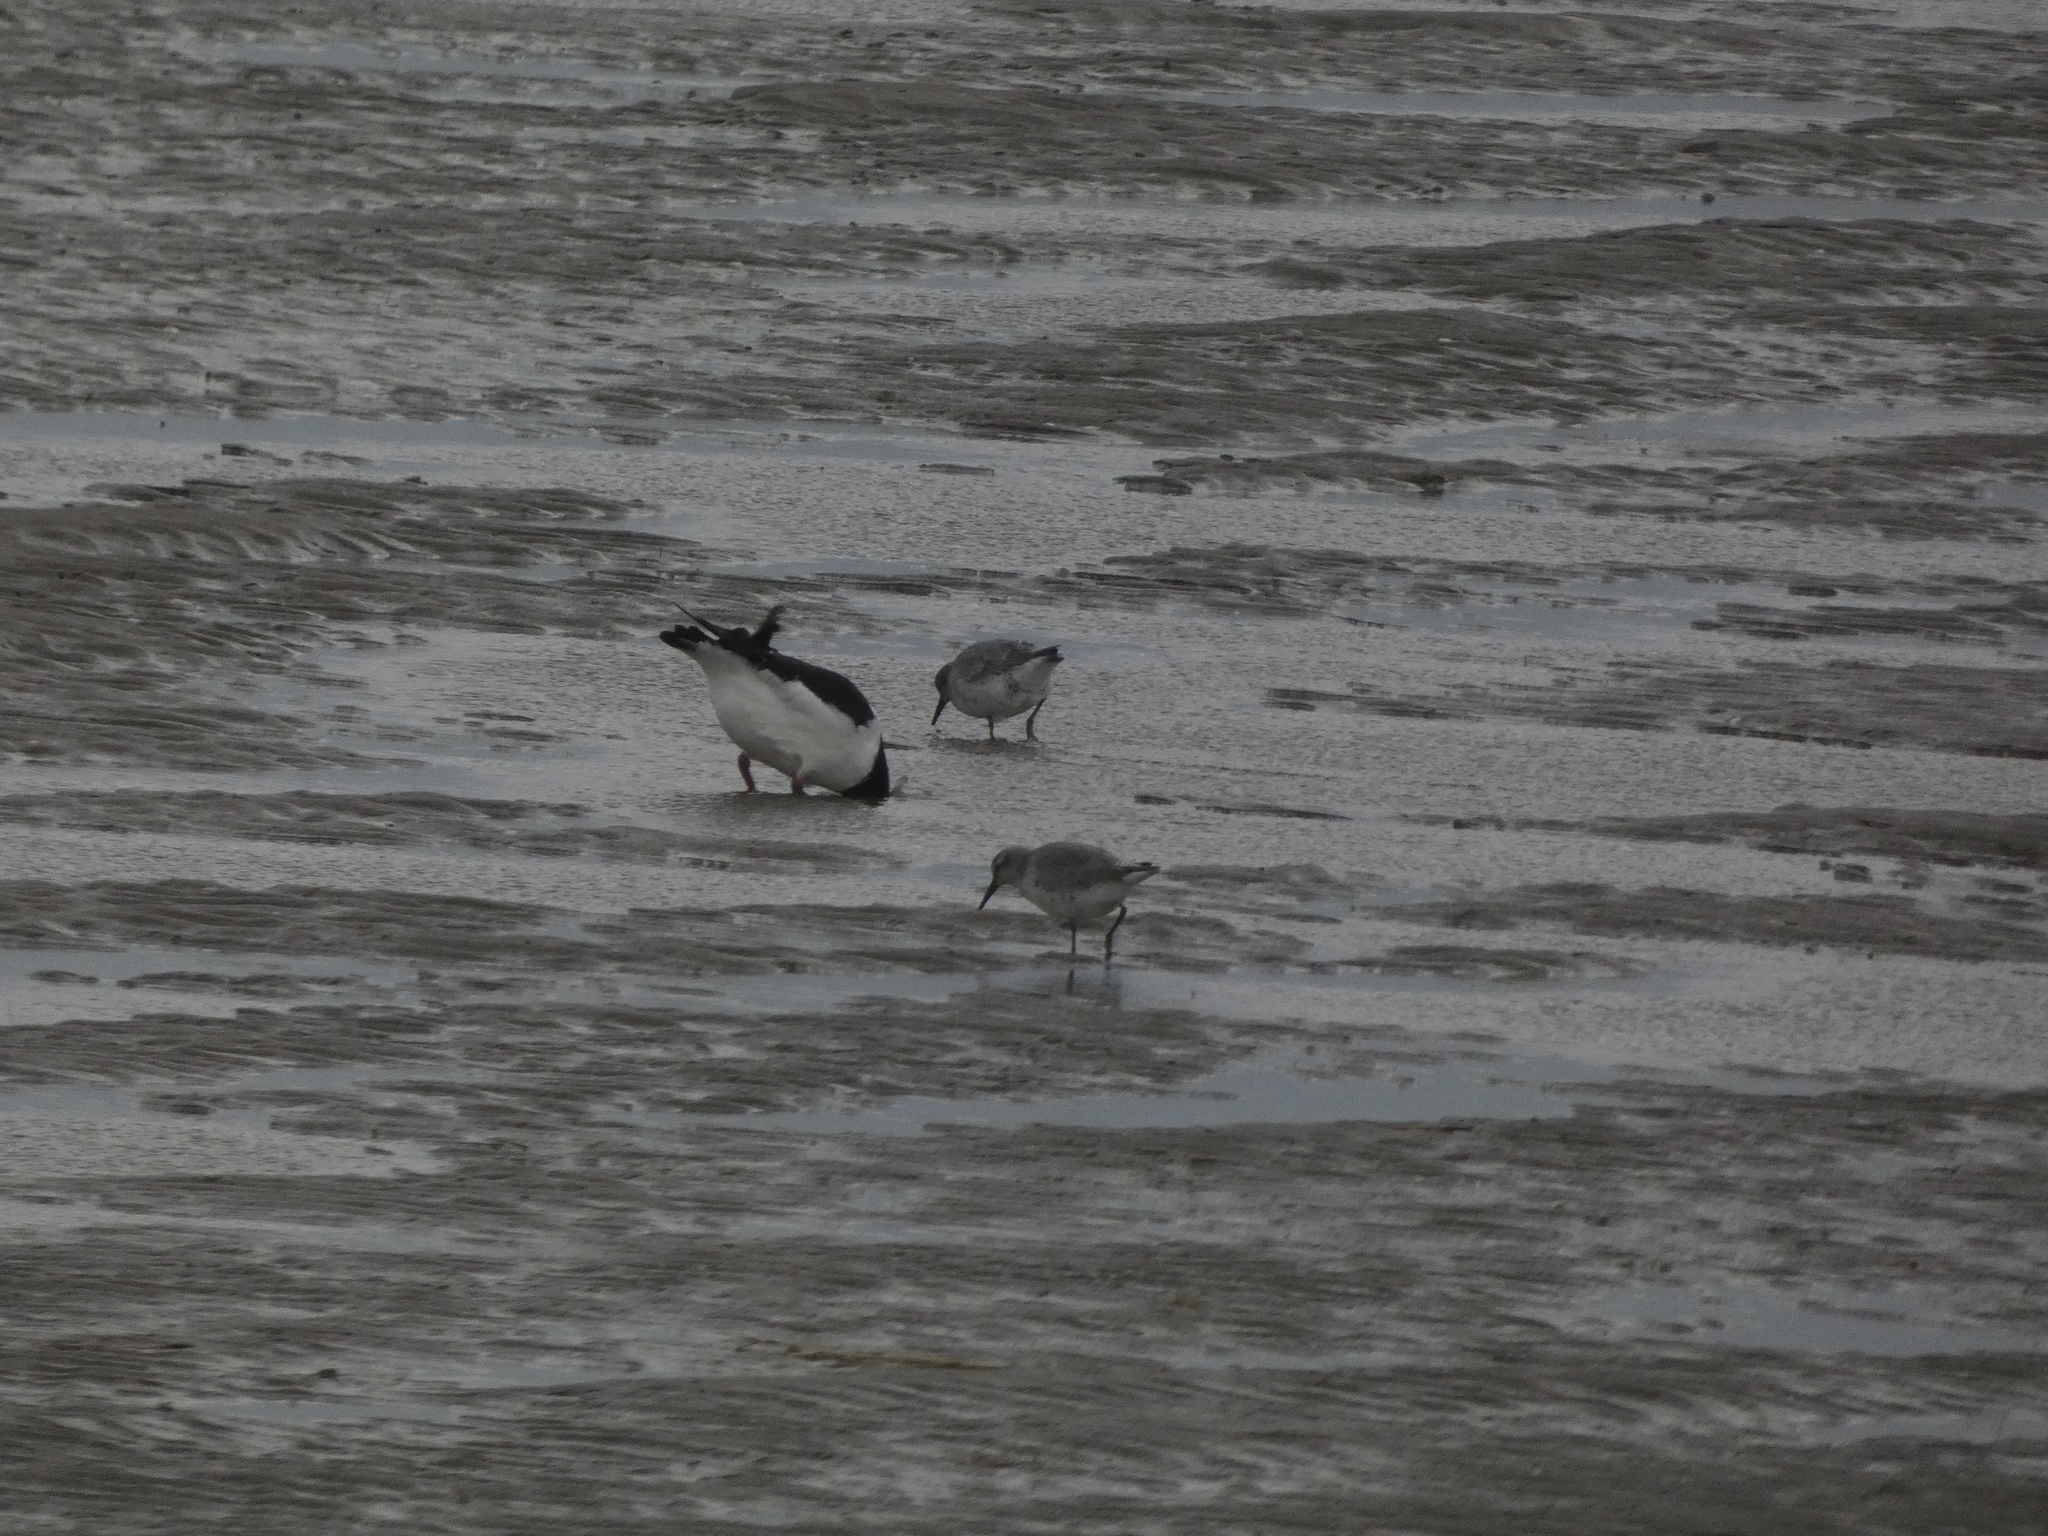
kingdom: Animalia
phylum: Chordata
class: Aves
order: Charadriiformes
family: Scolopacidae
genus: Calidris
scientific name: Calidris canutus
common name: Red knot
